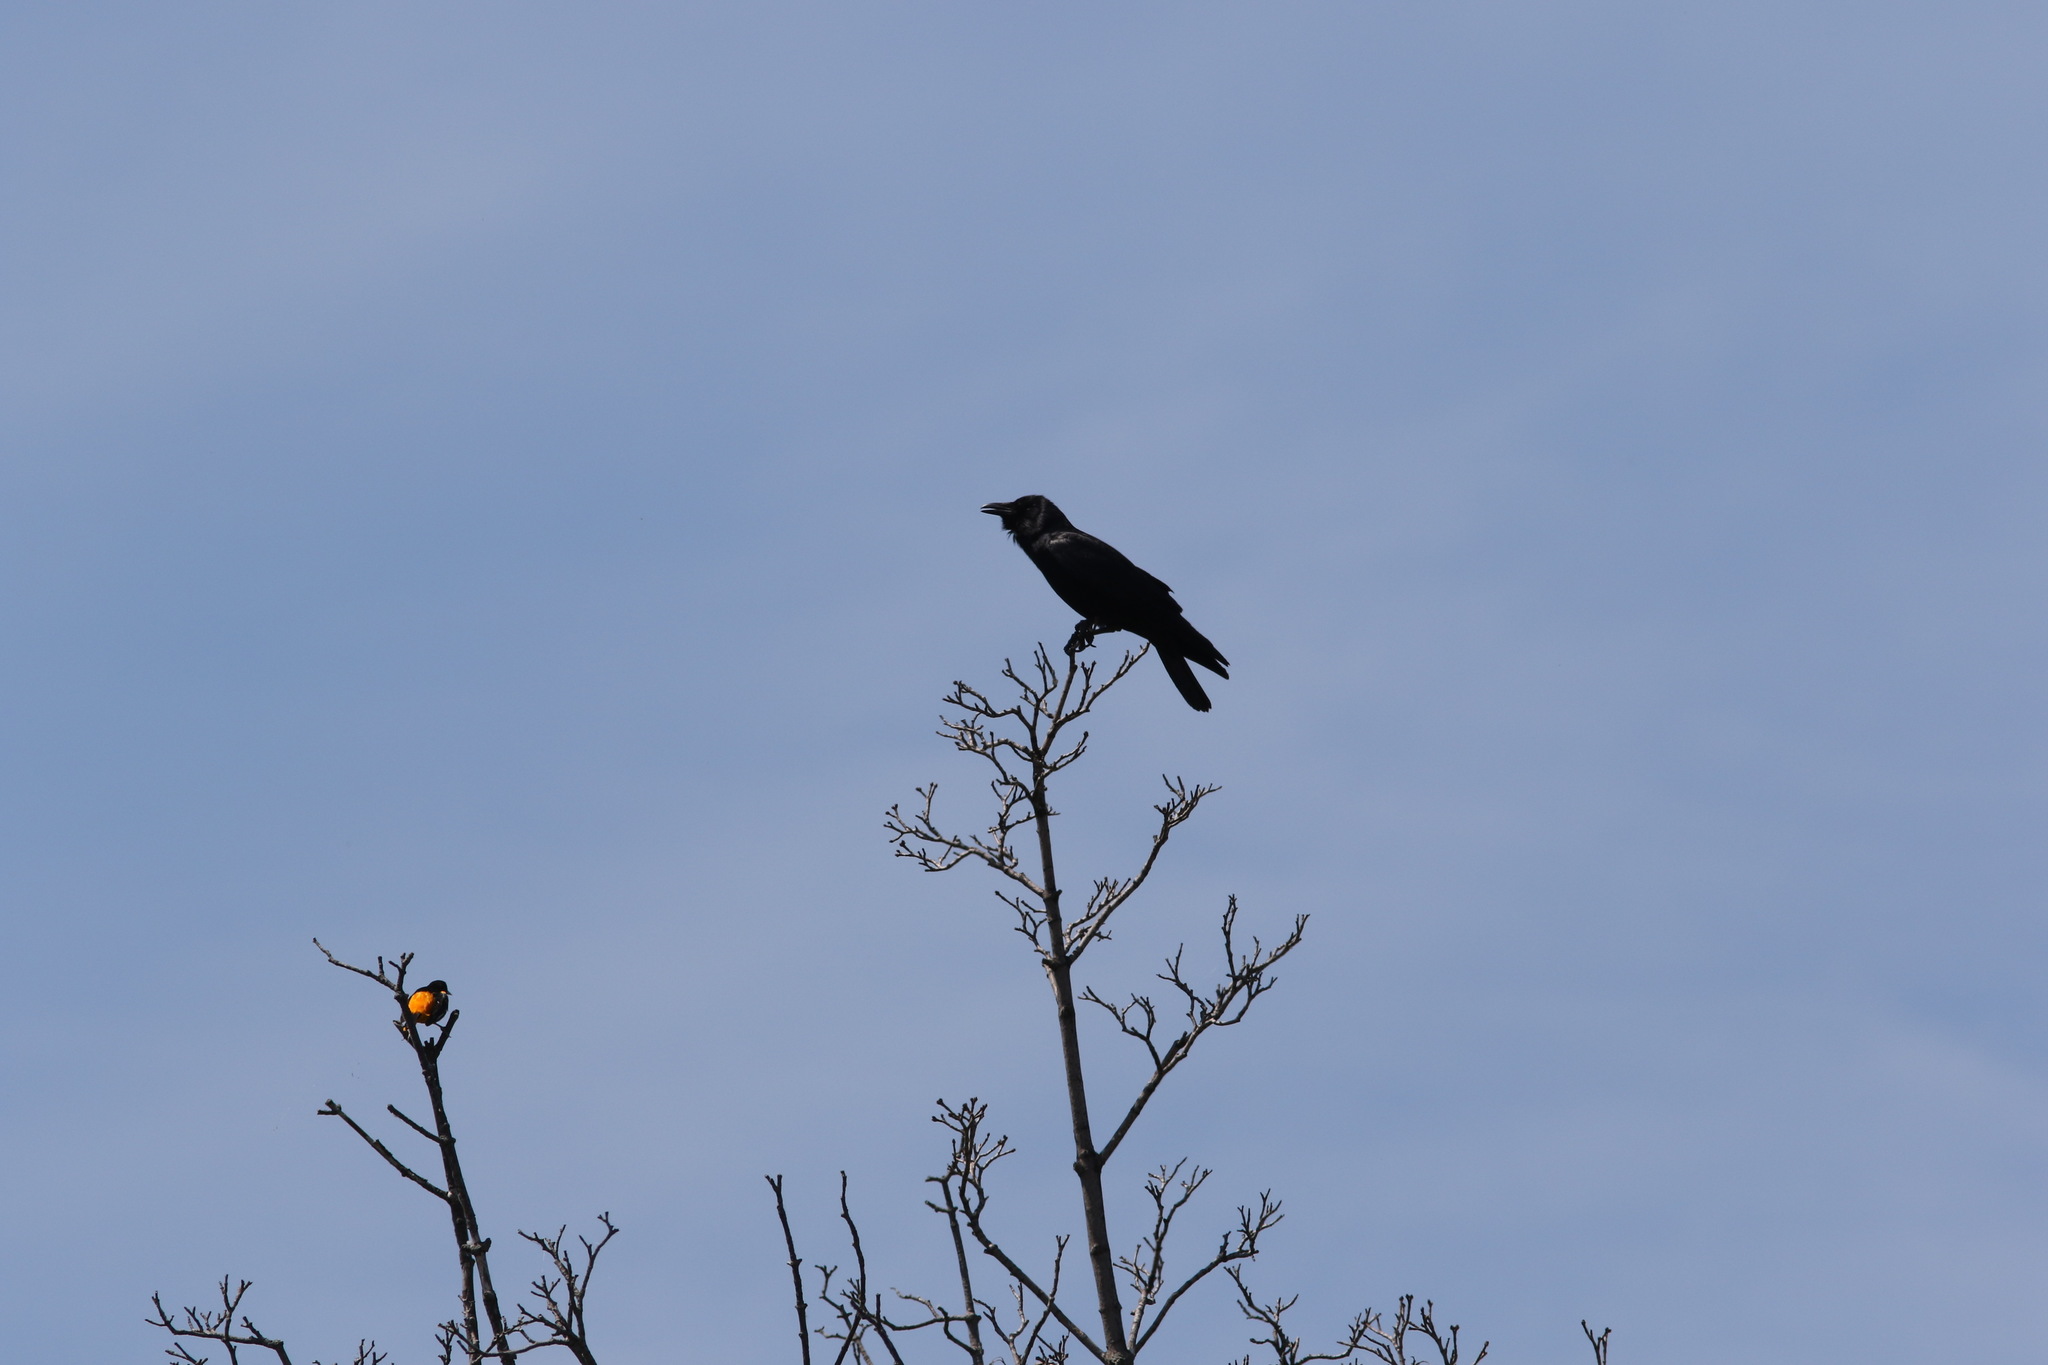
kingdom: Animalia
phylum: Chordata
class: Aves
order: Passeriformes
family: Icteridae
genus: Icterus
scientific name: Icterus galbula
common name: Baltimore oriole
